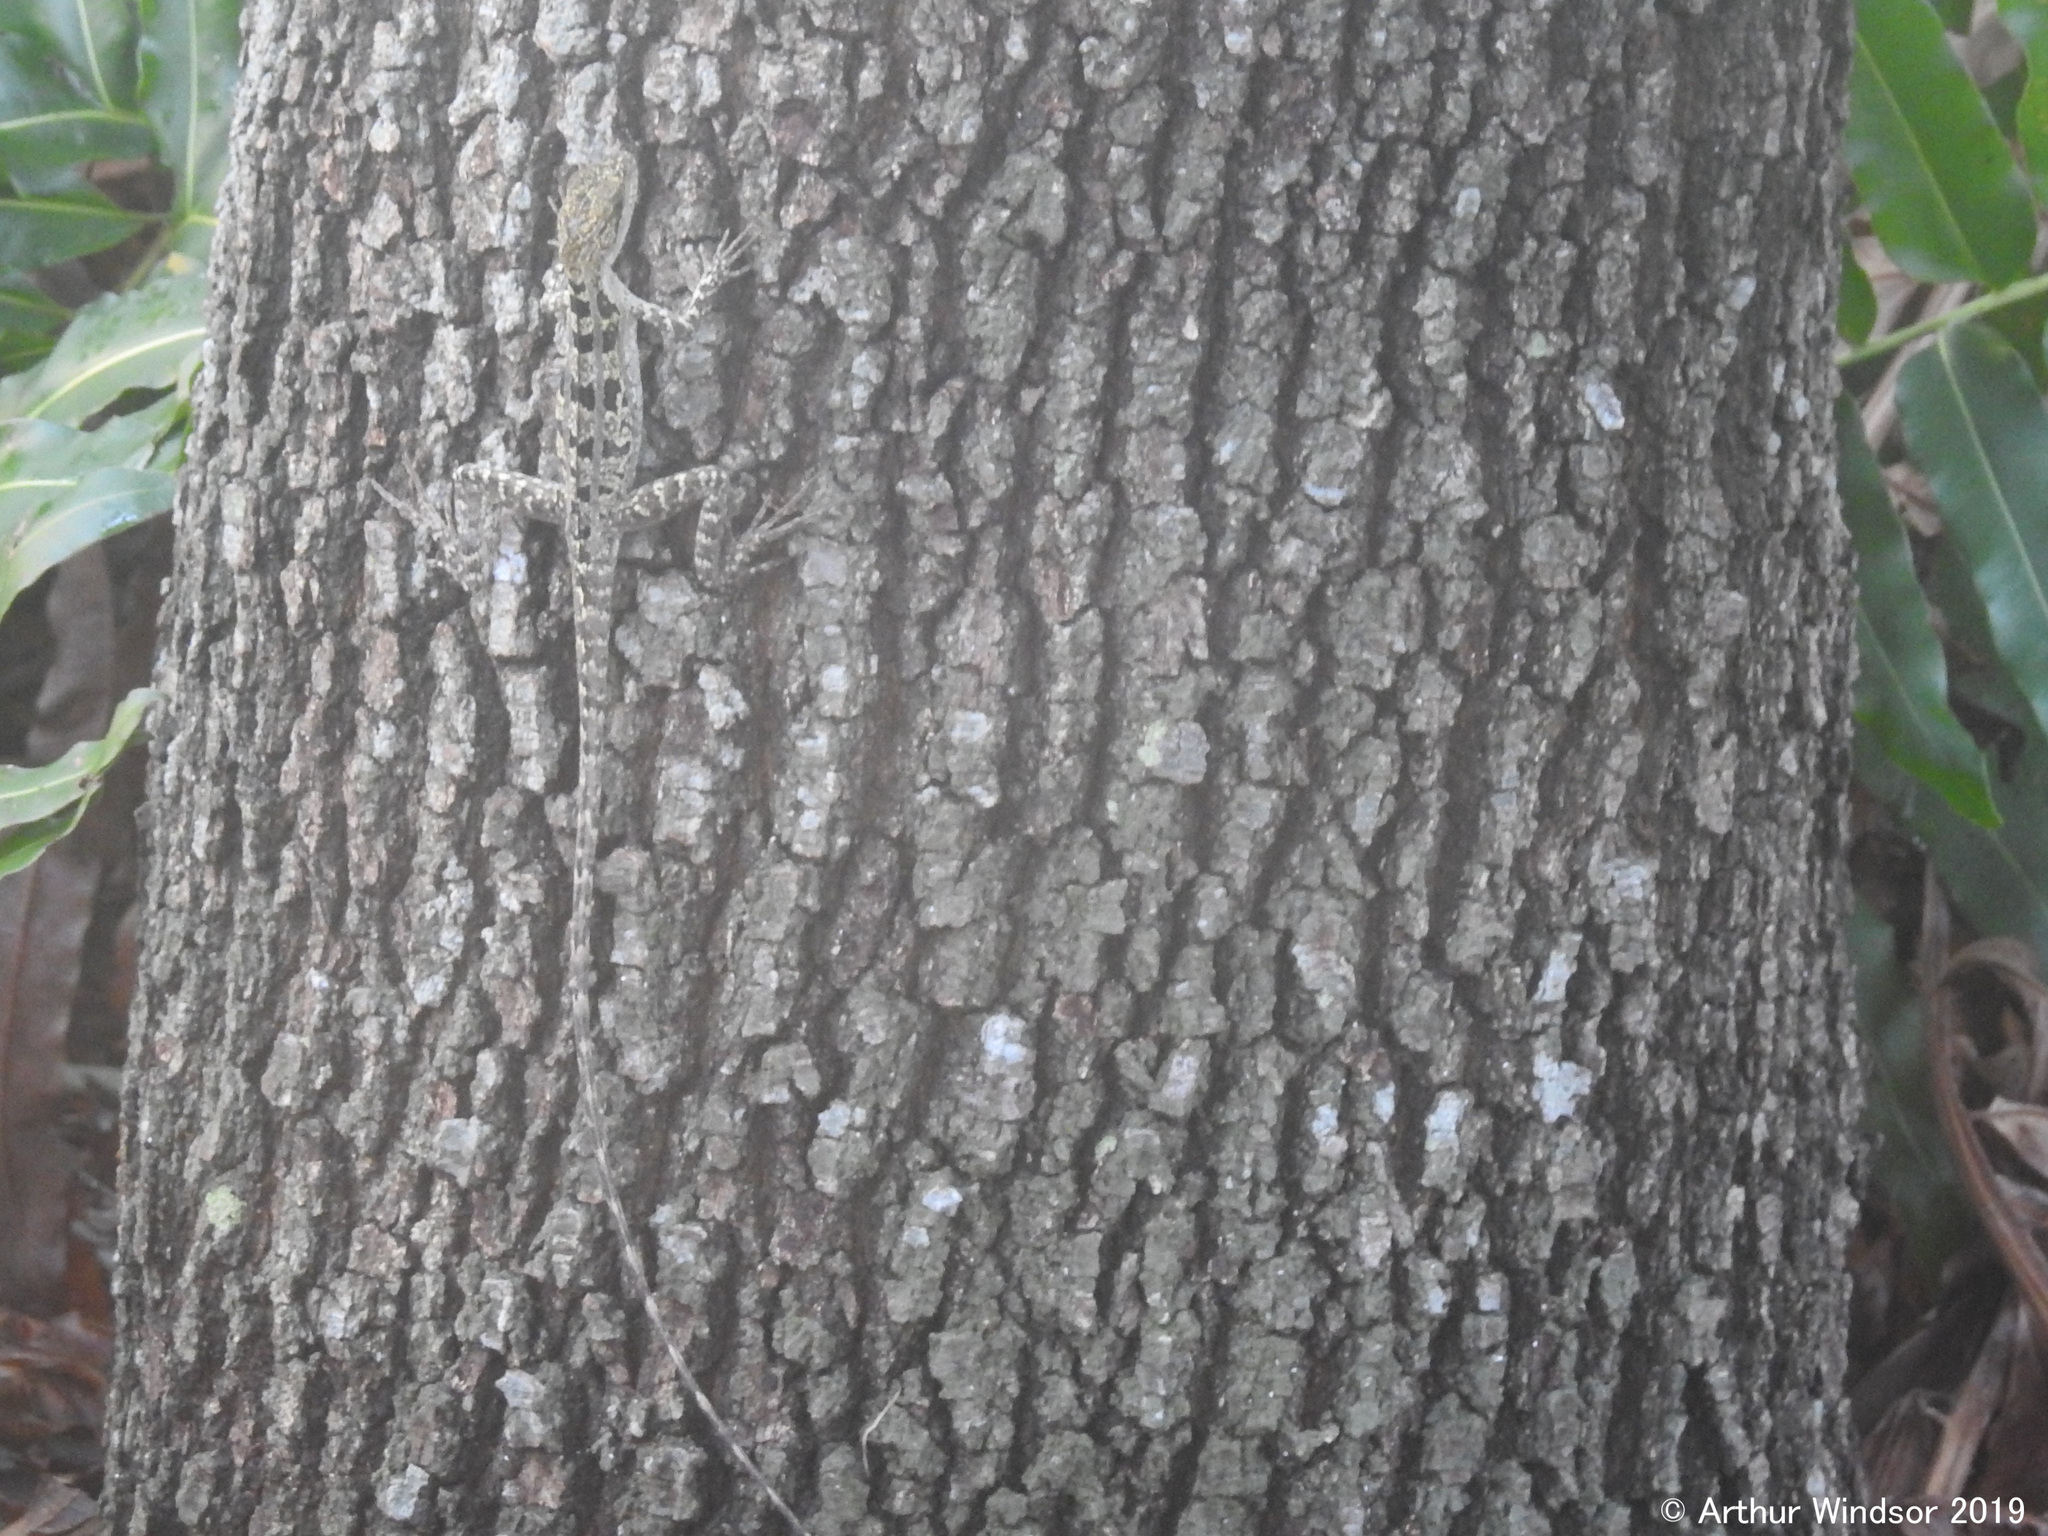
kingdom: Animalia
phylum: Chordata
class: Squamata
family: Corytophanidae
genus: Basiliscus
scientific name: Basiliscus vittatus
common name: Brown basilisk
